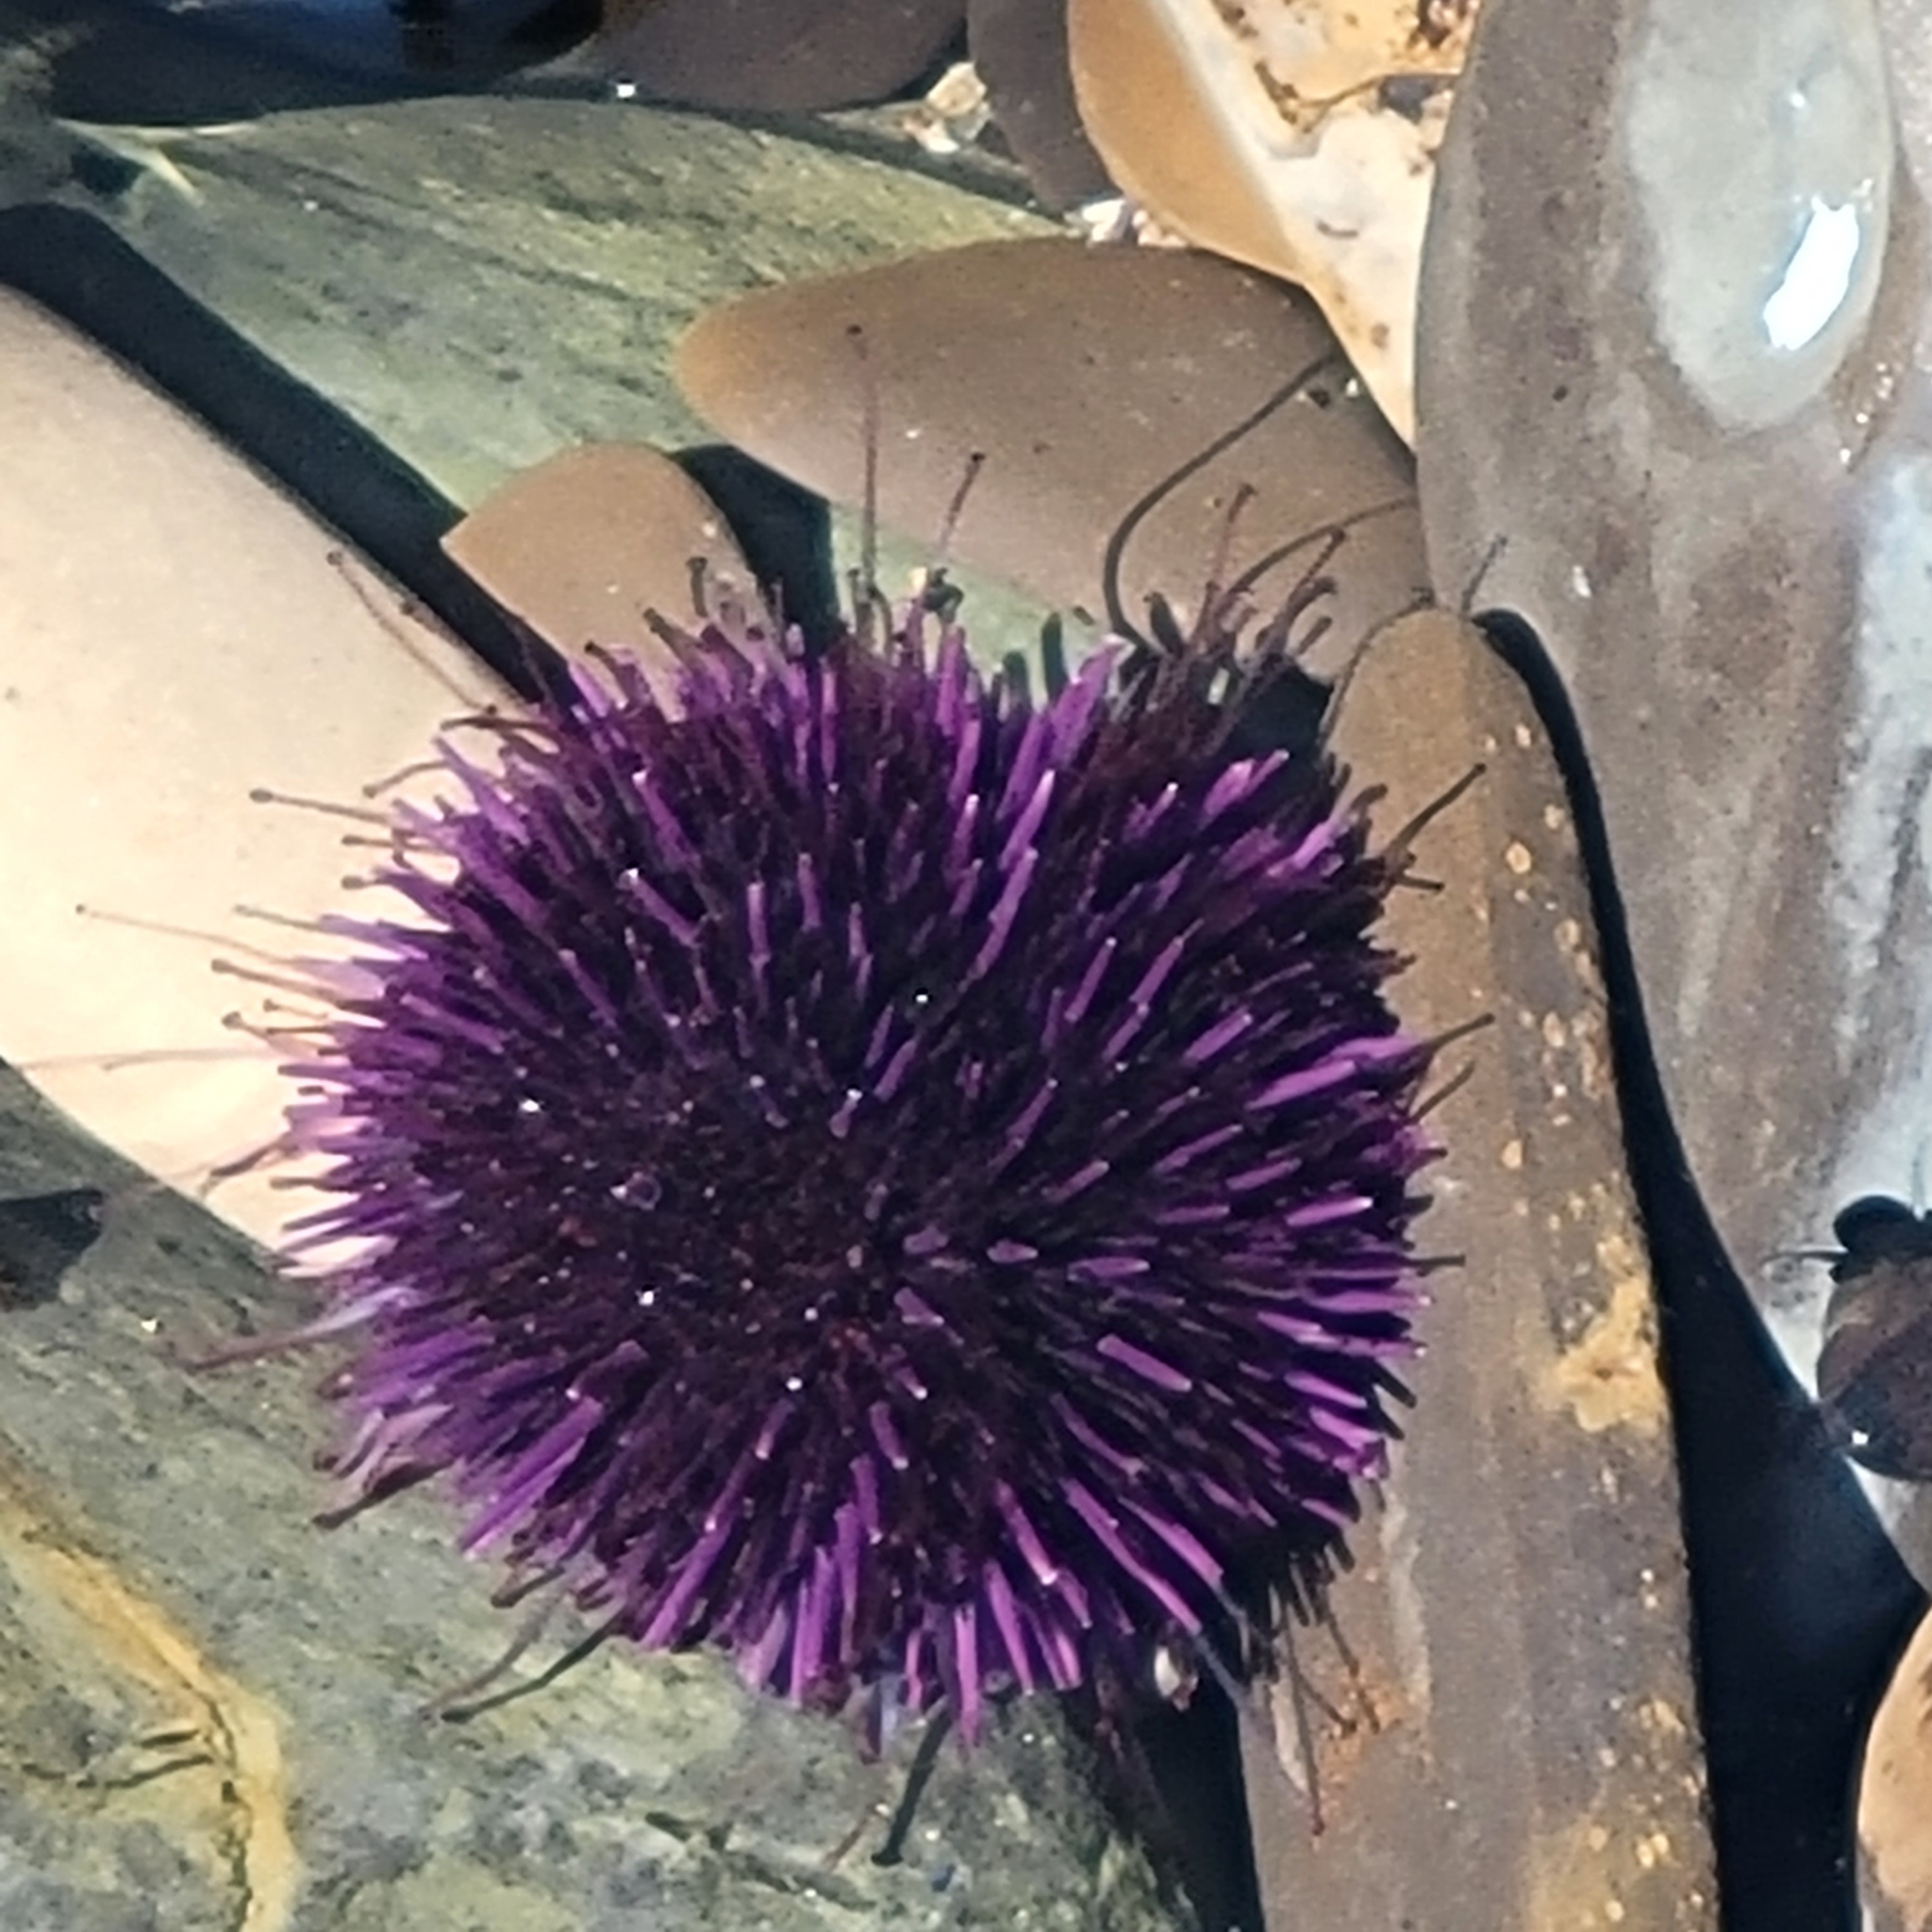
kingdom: Animalia
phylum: Echinodermata
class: Echinoidea
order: Camarodonta
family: Strongylocentrotidae
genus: Strongylocentrotus
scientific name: Strongylocentrotus purpuratus
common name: Purple sea urchin
